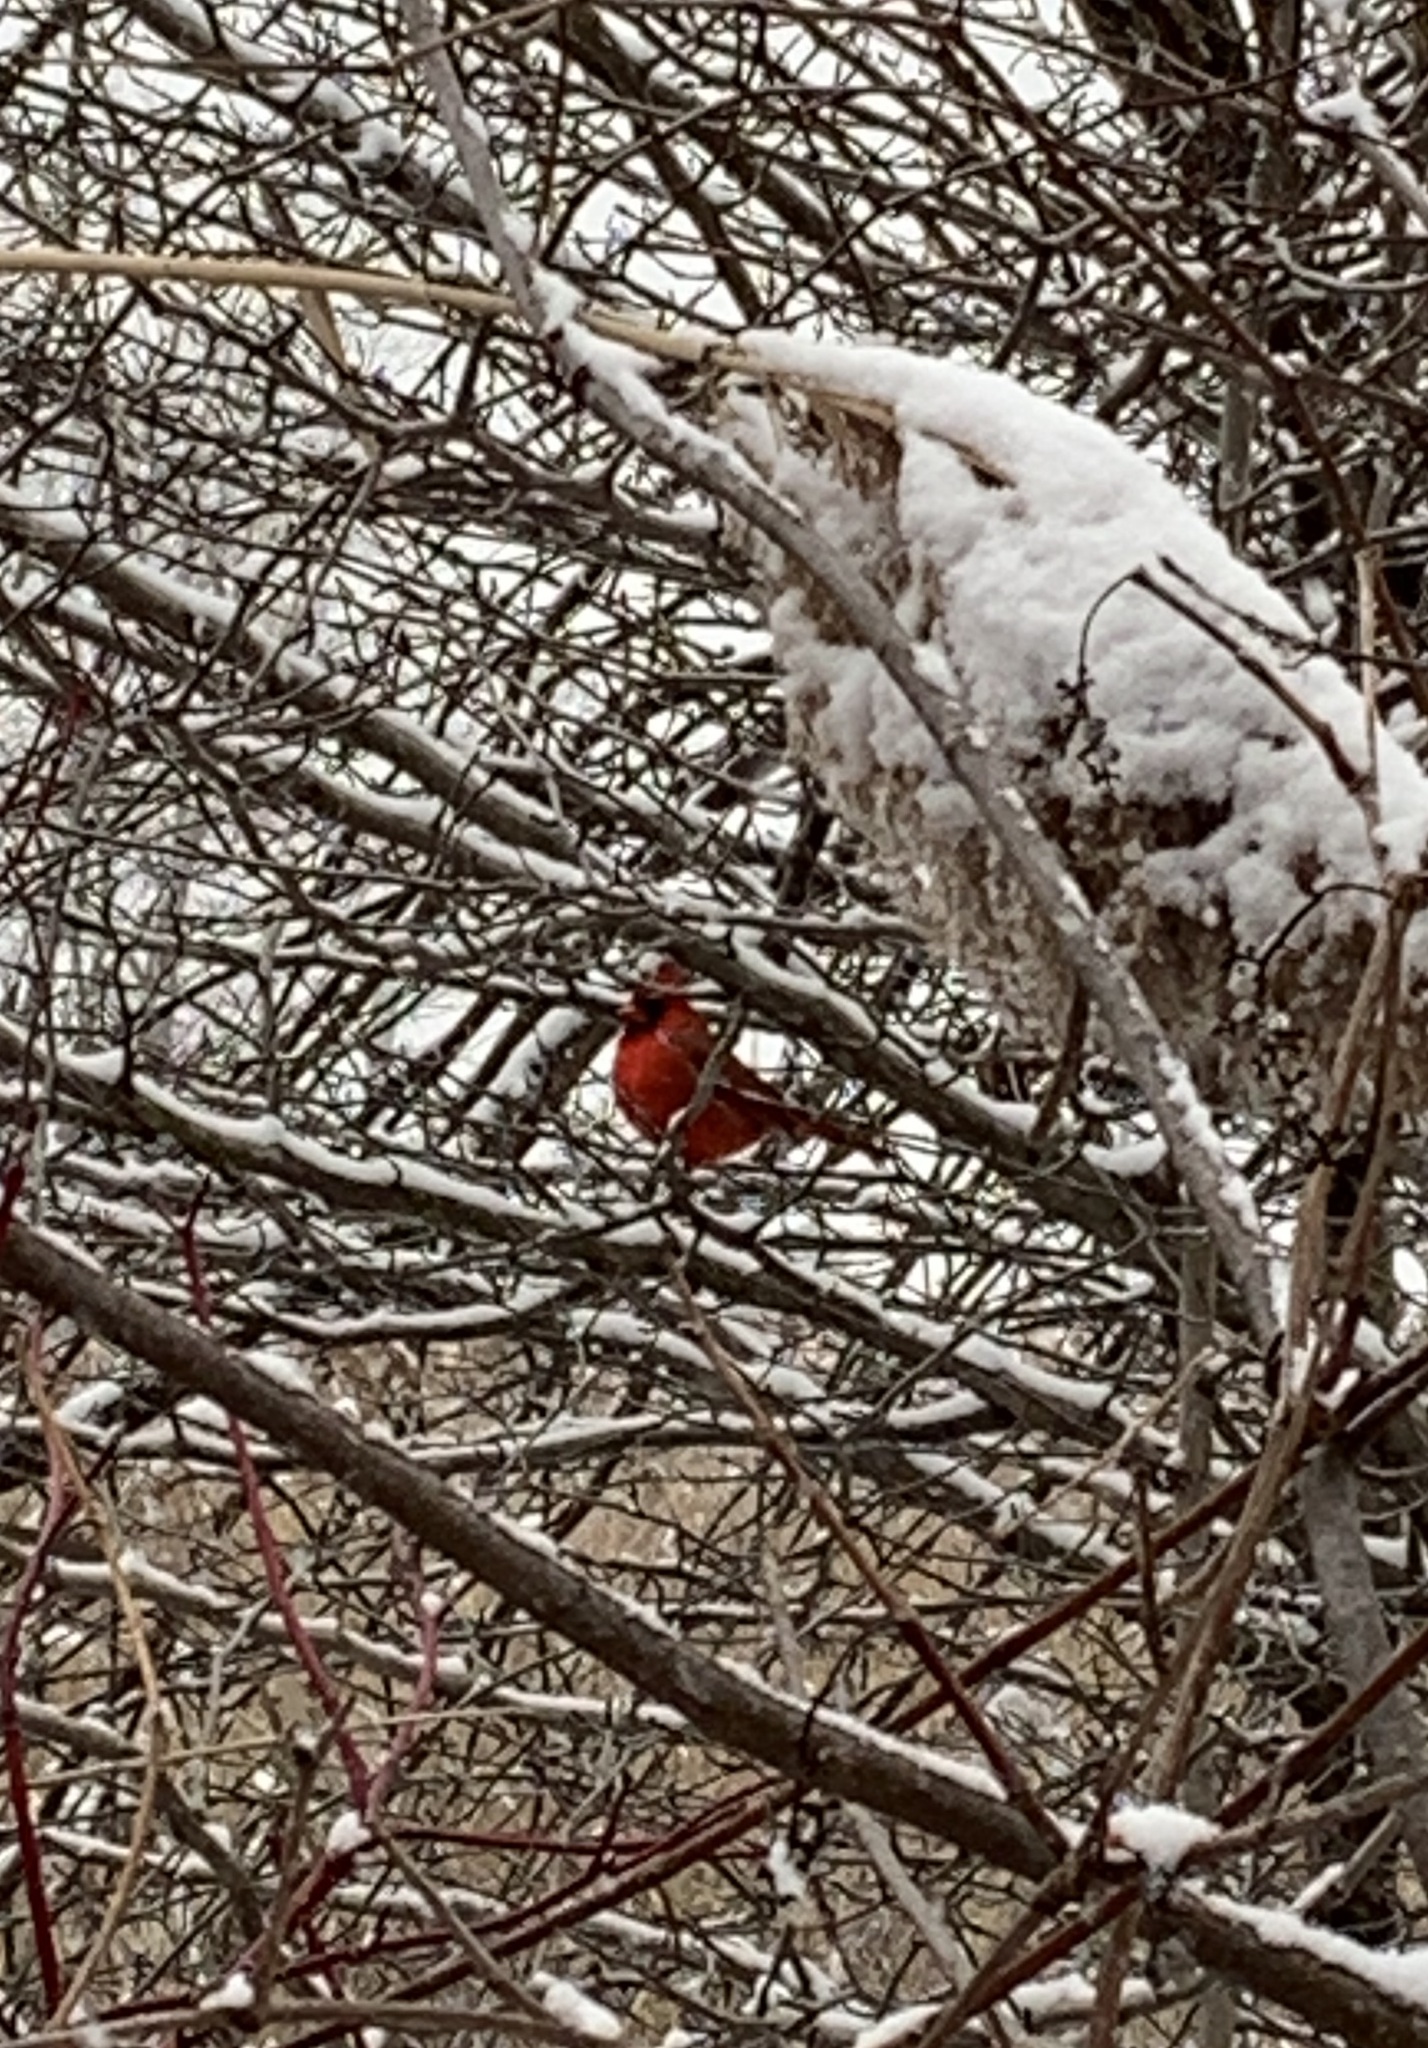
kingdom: Animalia
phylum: Chordata
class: Aves
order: Passeriformes
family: Cardinalidae
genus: Cardinalis
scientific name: Cardinalis cardinalis
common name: Northern cardinal
